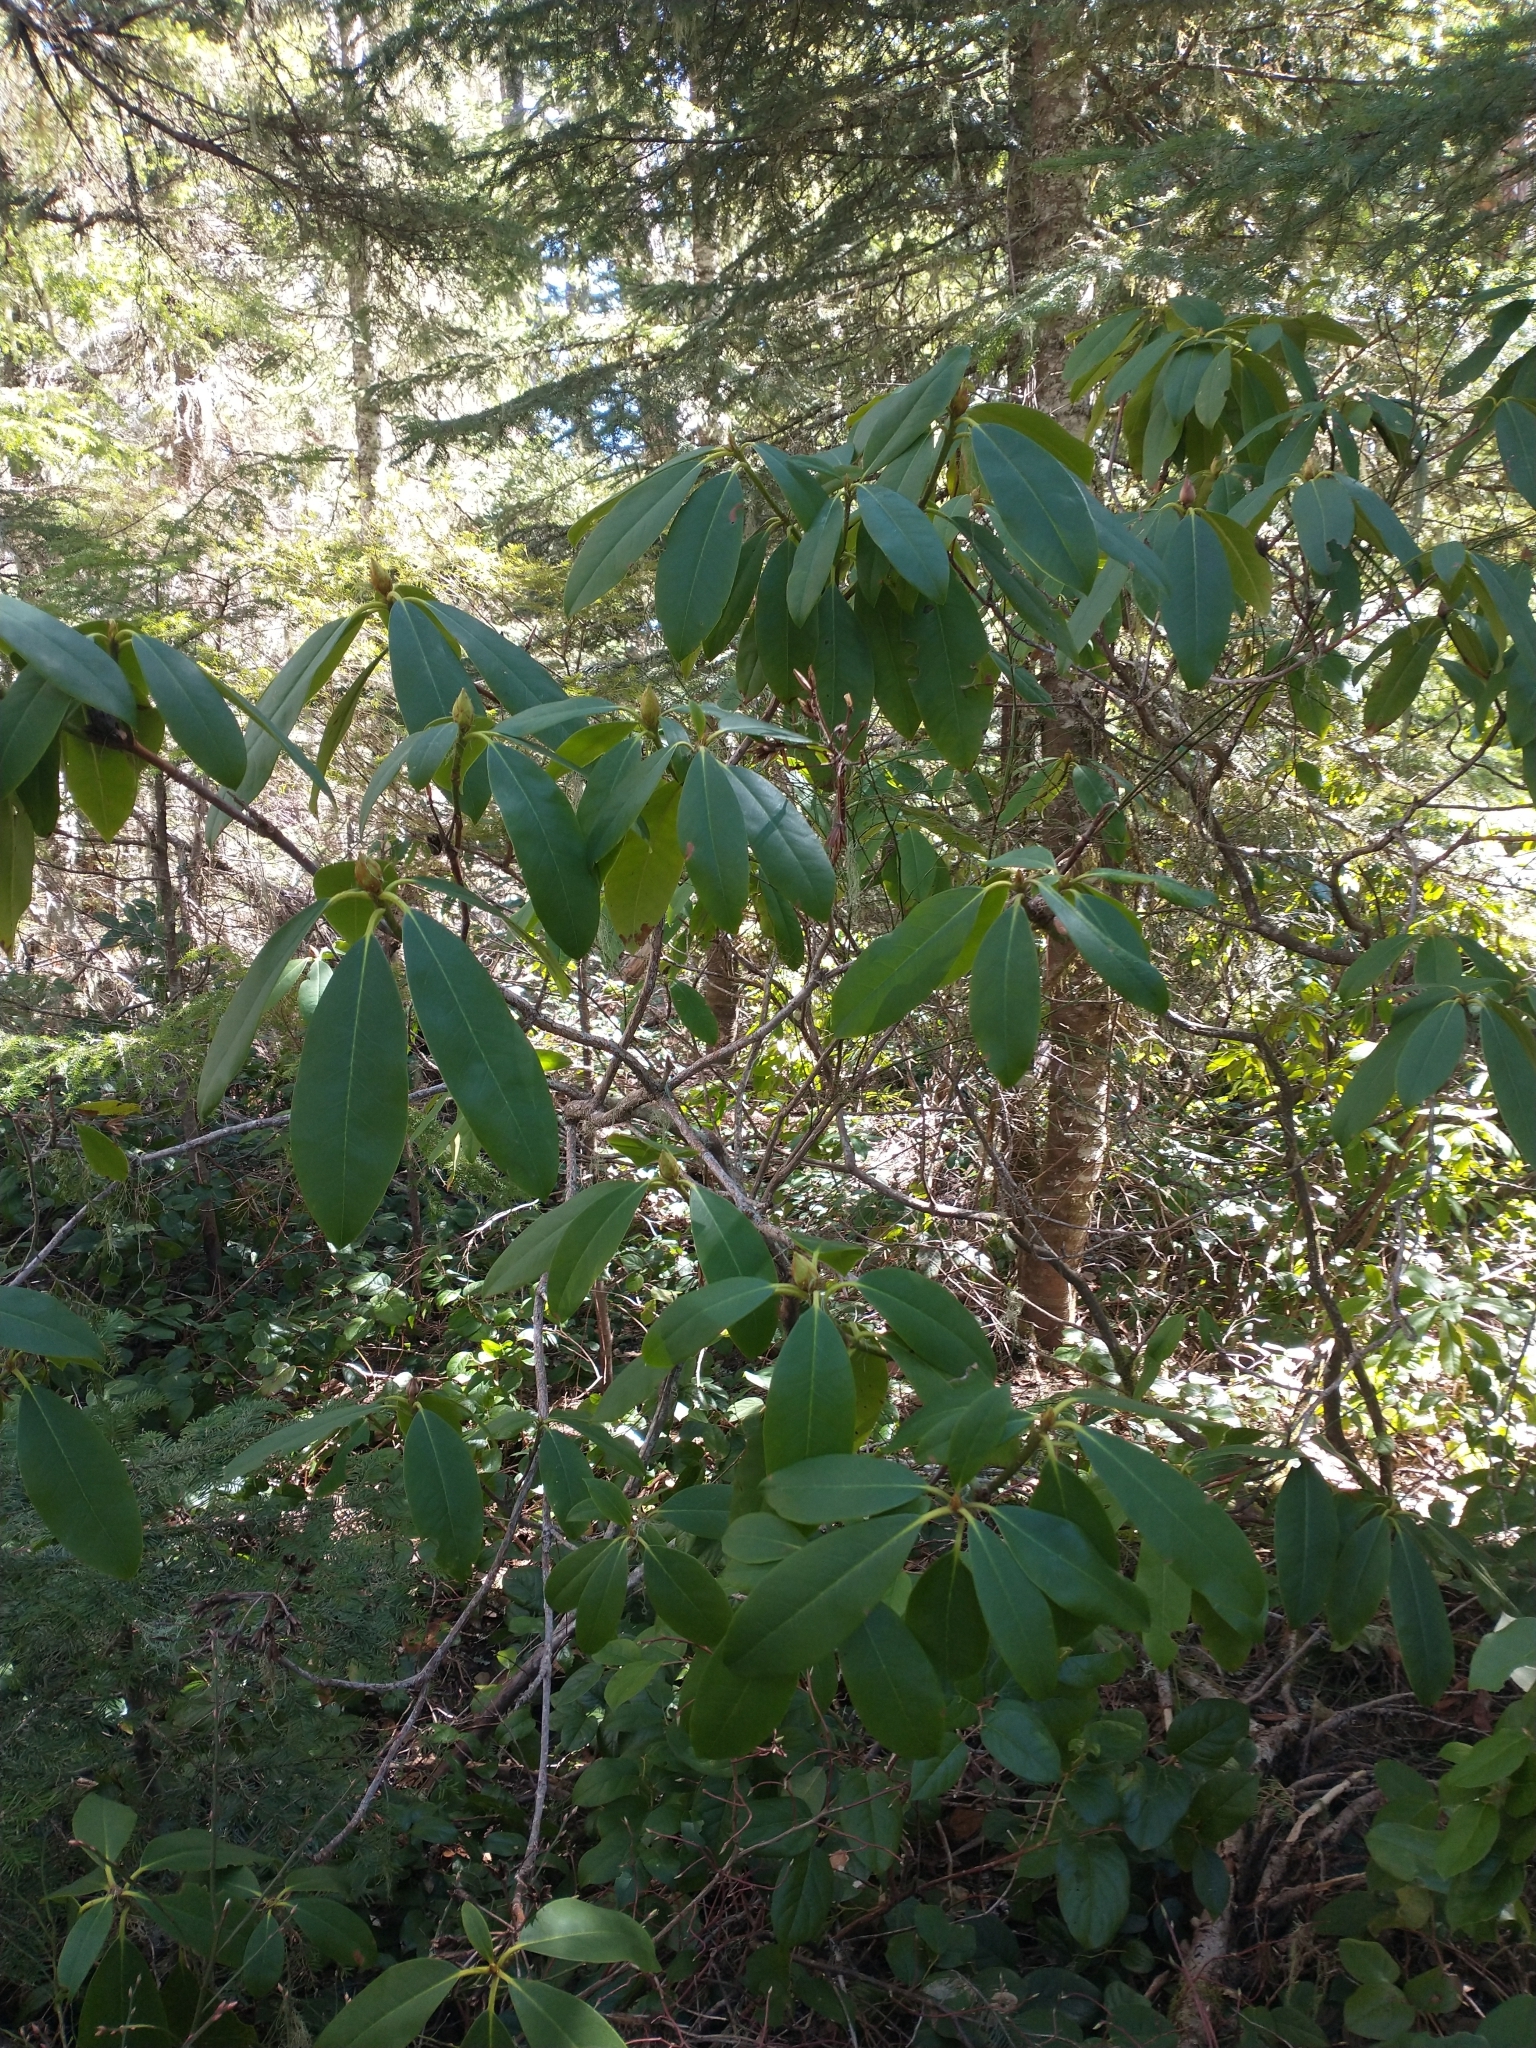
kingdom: Plantae
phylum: Tracheophyta
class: Magnoliopsida
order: Ericales
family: Ericaceae
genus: Rhododendron
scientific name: Rhododendron macrophyllum
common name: California rose bay
